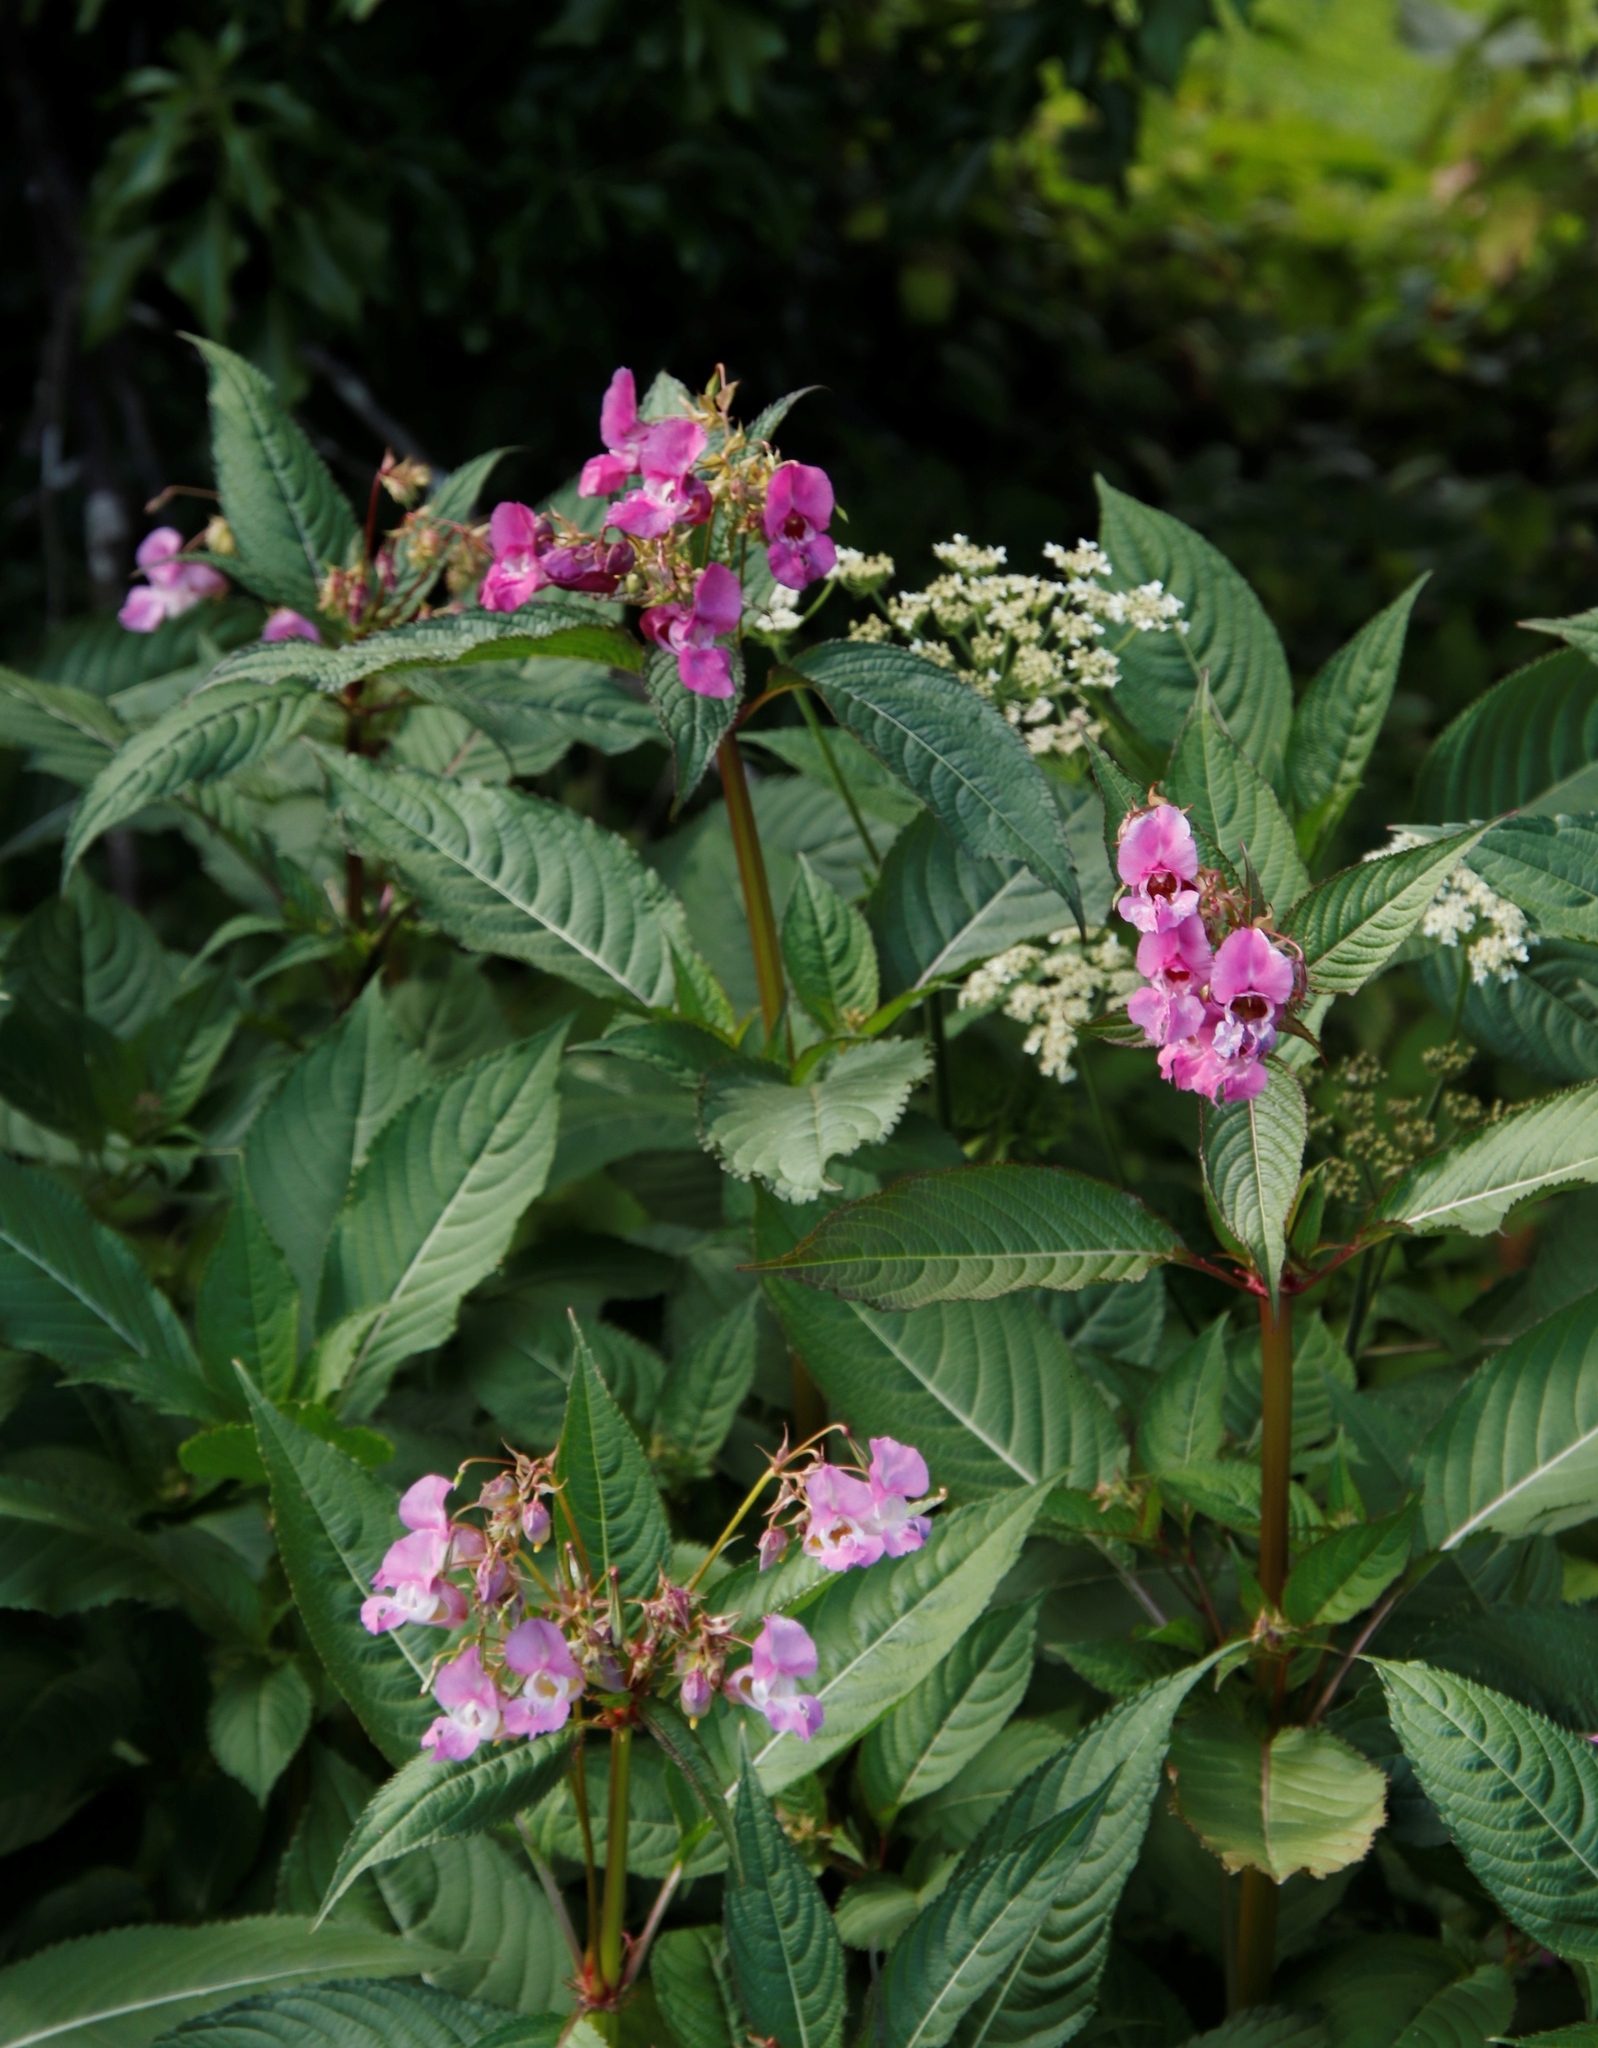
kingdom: Plantae
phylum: Tracheophyta
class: Magnoliopsida
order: Ericales
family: Balsaminaceae
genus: Impatiens
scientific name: Impatiens glandulifera
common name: Himalayan balsam
